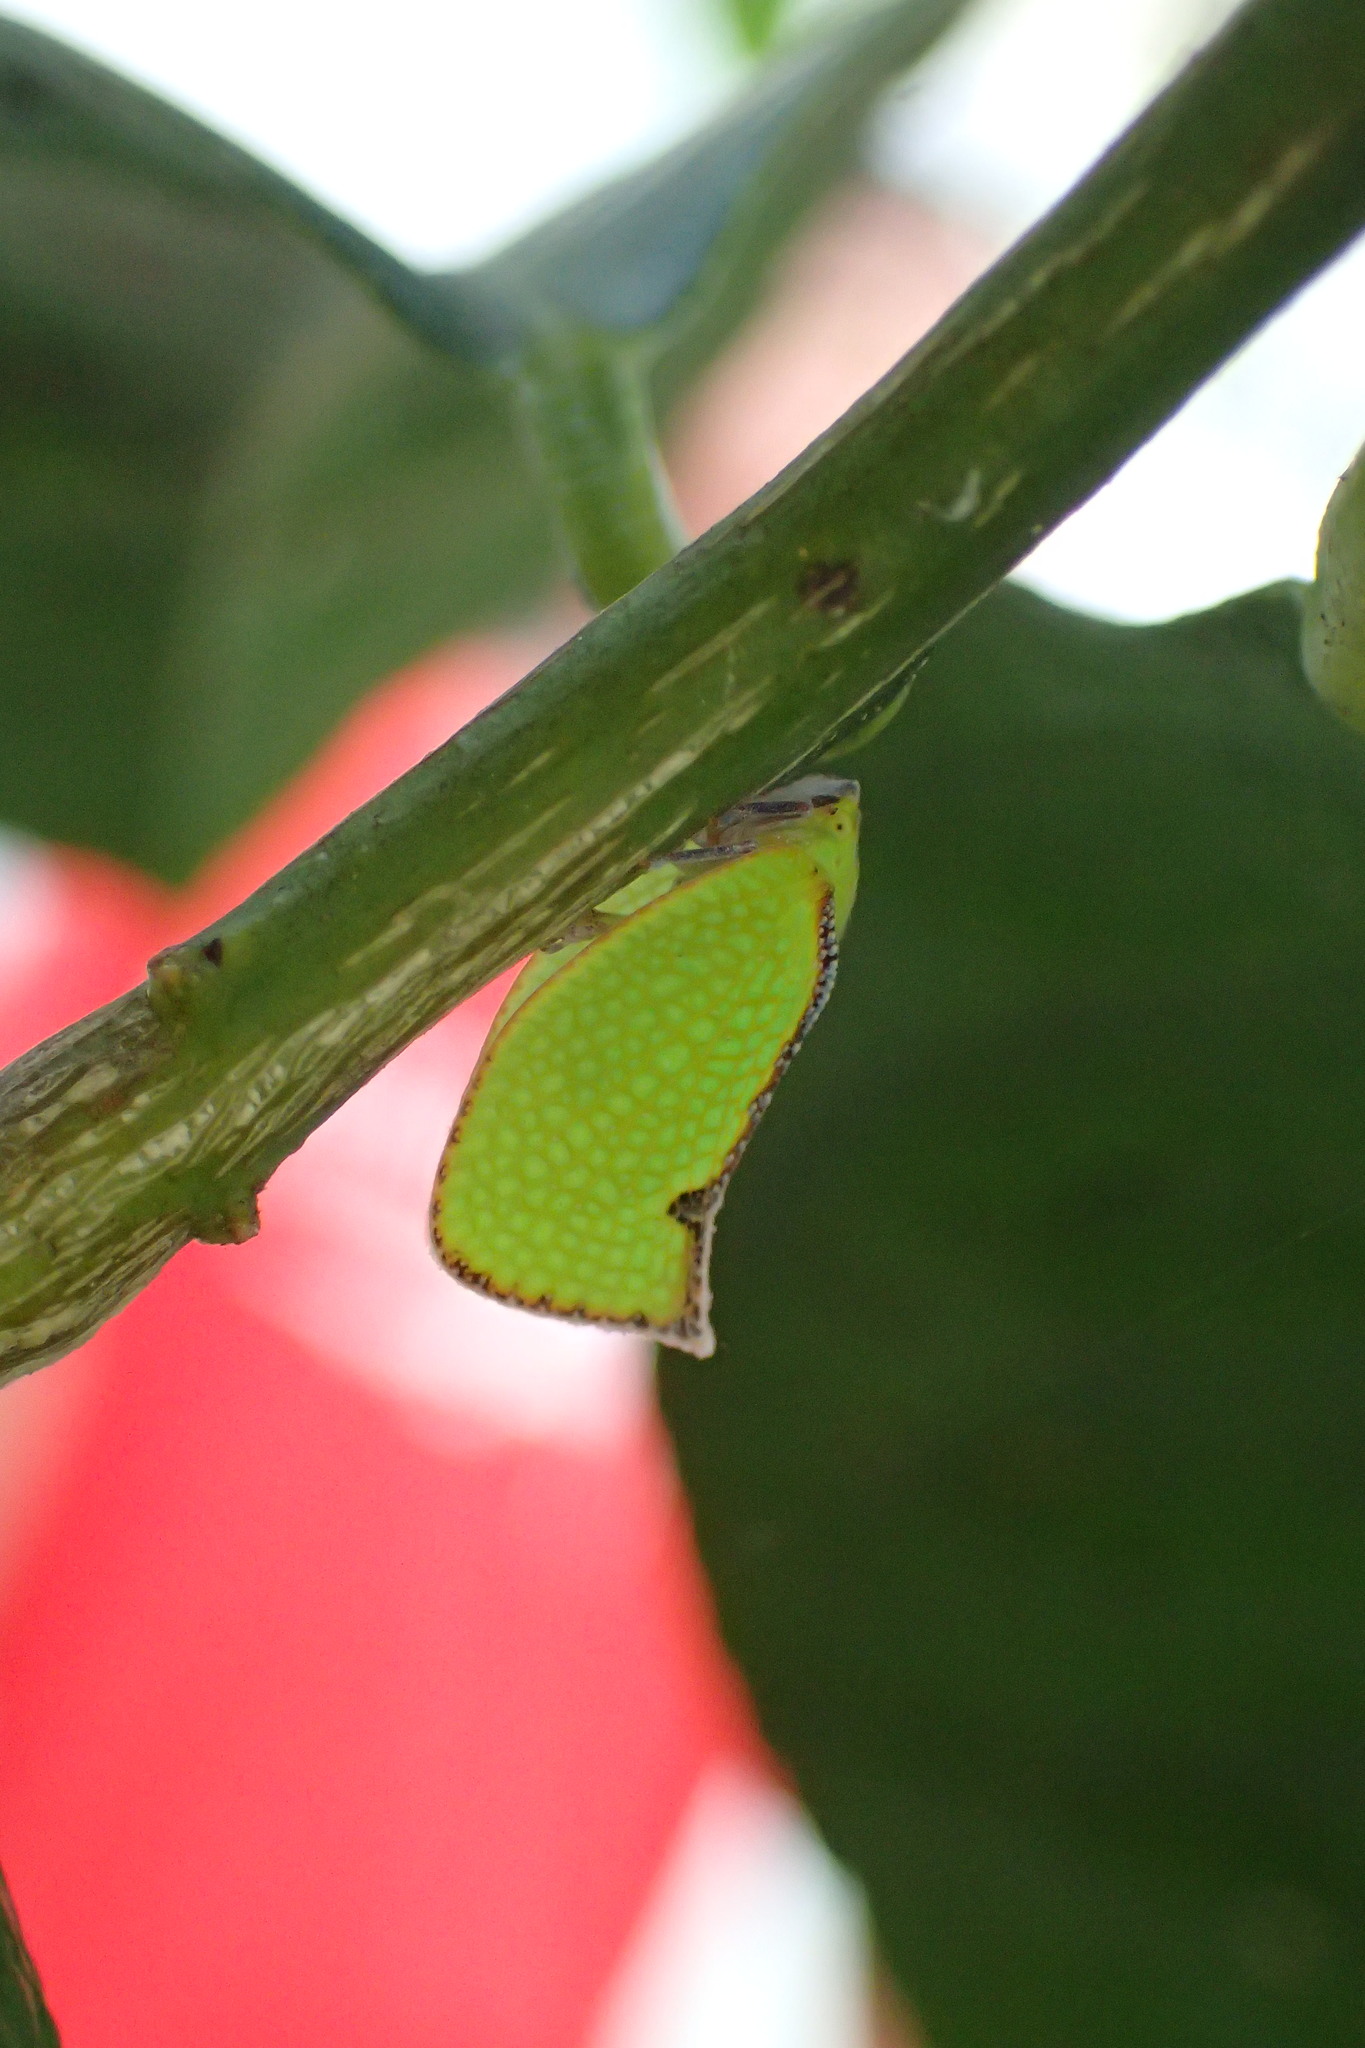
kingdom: Animalia
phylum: Arthropoda
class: Insecta
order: Hemiptera
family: Flatidae
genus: Salurnis
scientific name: Salurnis marginella
